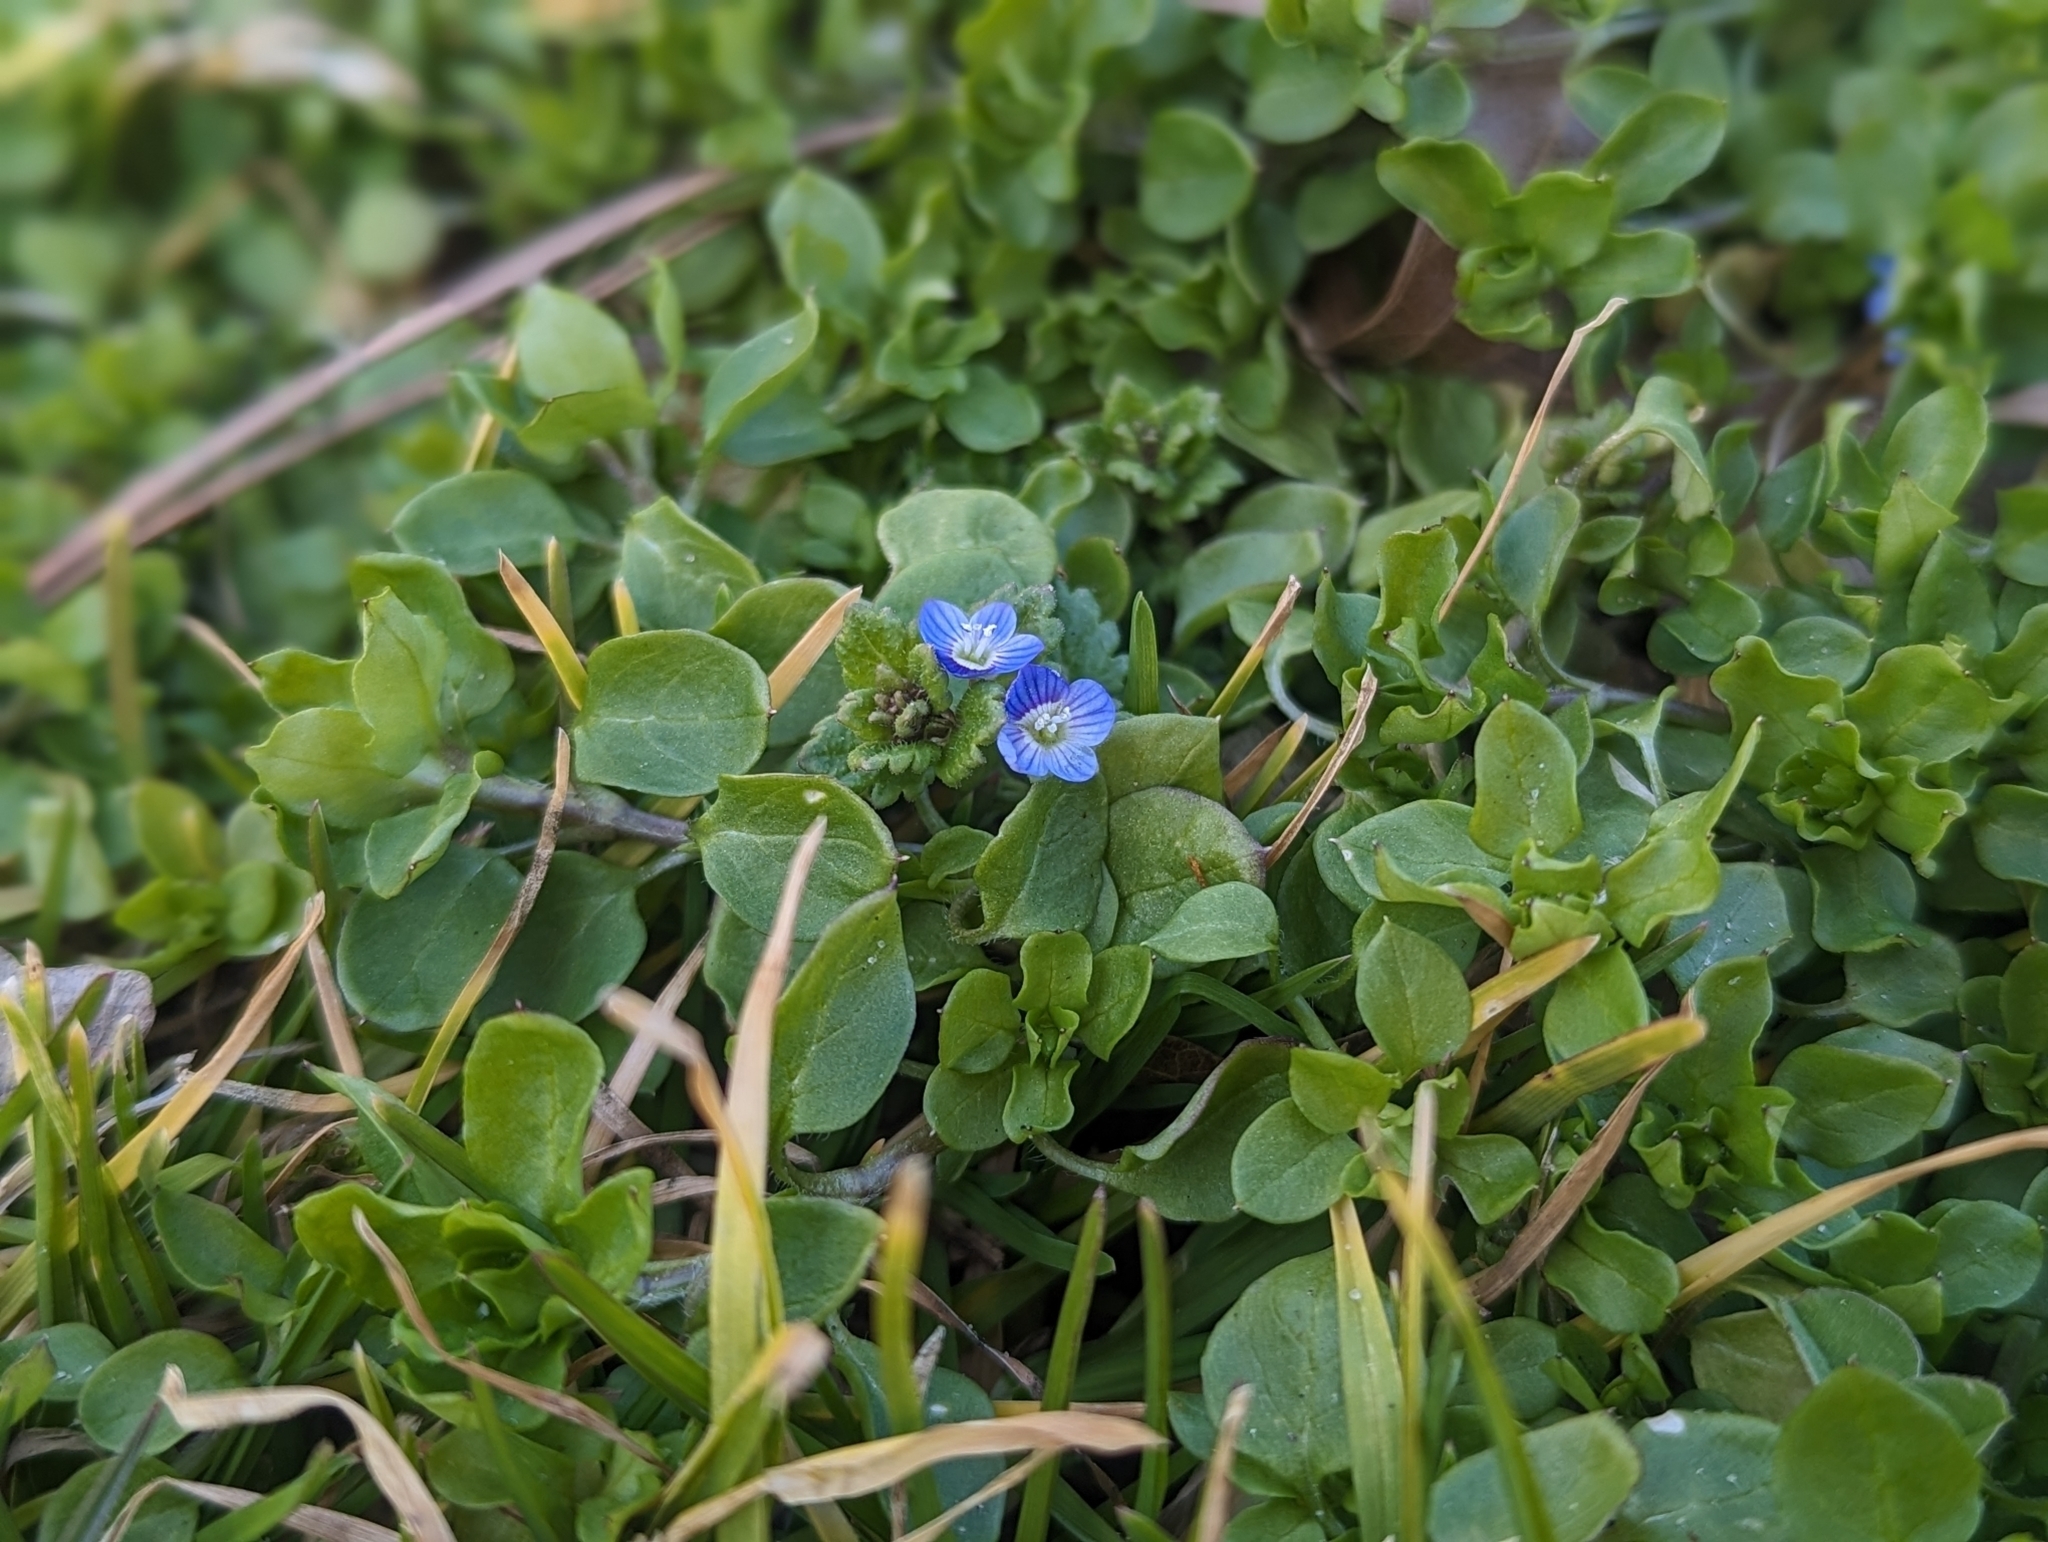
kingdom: Plantae
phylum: Tracheophyta
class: Magnoliopsida
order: Lamiales
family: Plantaginaceae
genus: Veronica
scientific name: Veronica polita
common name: Grey field-speedwell
